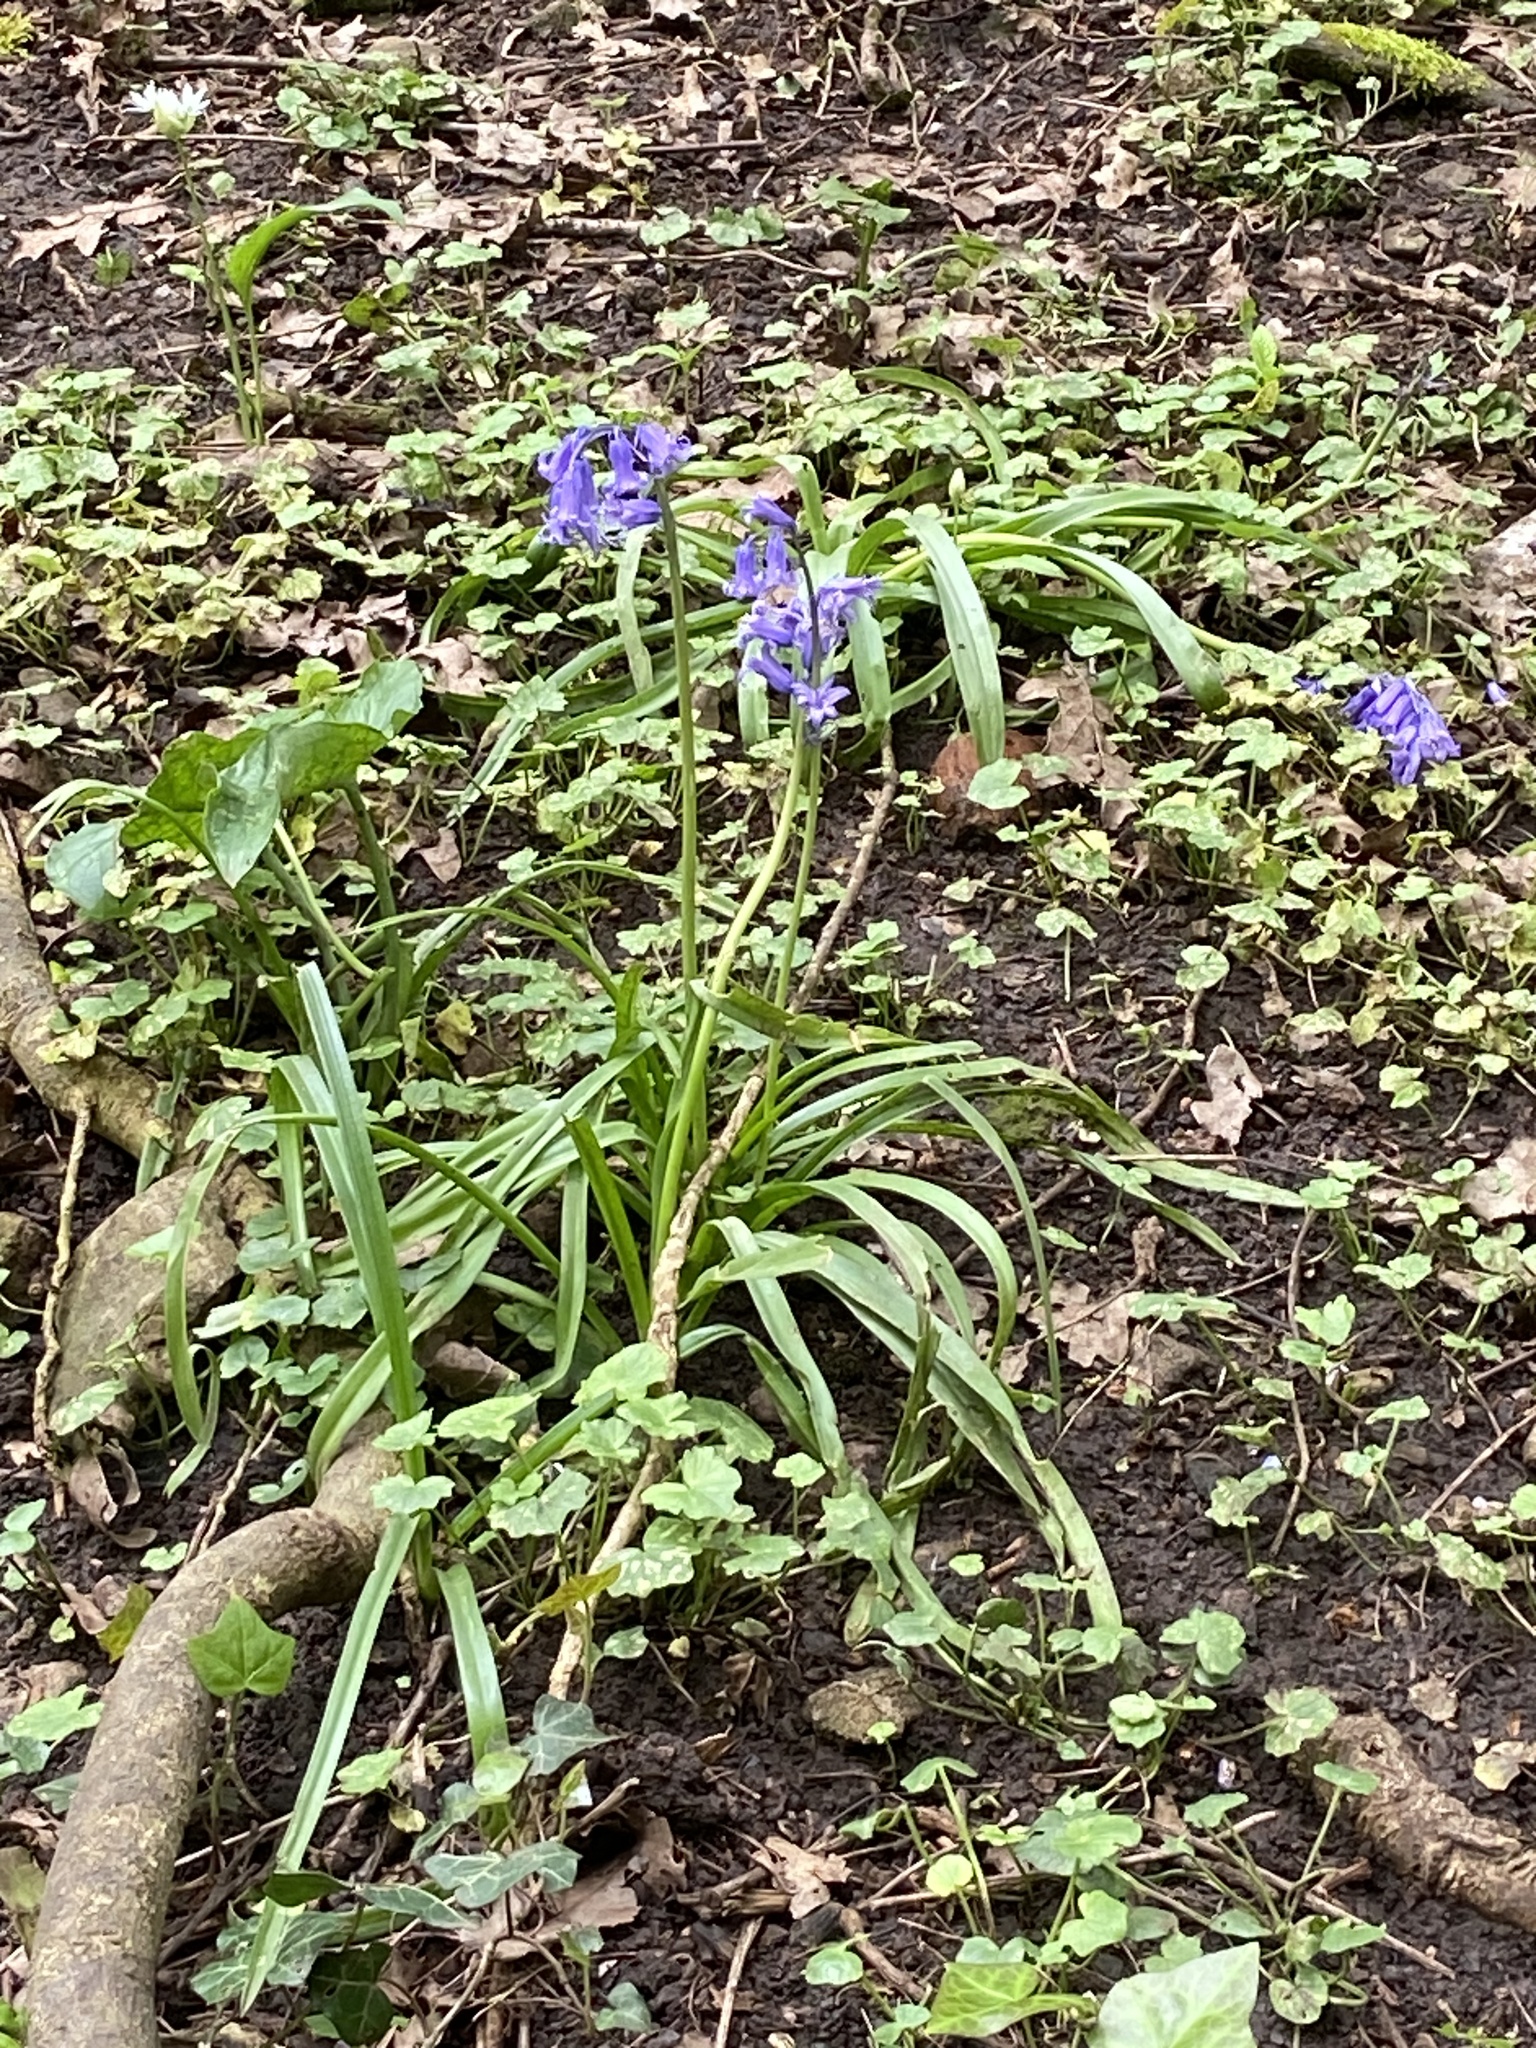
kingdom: Plantae
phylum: Tracheophyta
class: Liliopsida
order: Asparagales
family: Asparagaceae
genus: Hyacinthoides
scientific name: Hyacinthoides non-scripta
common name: Bluebell
